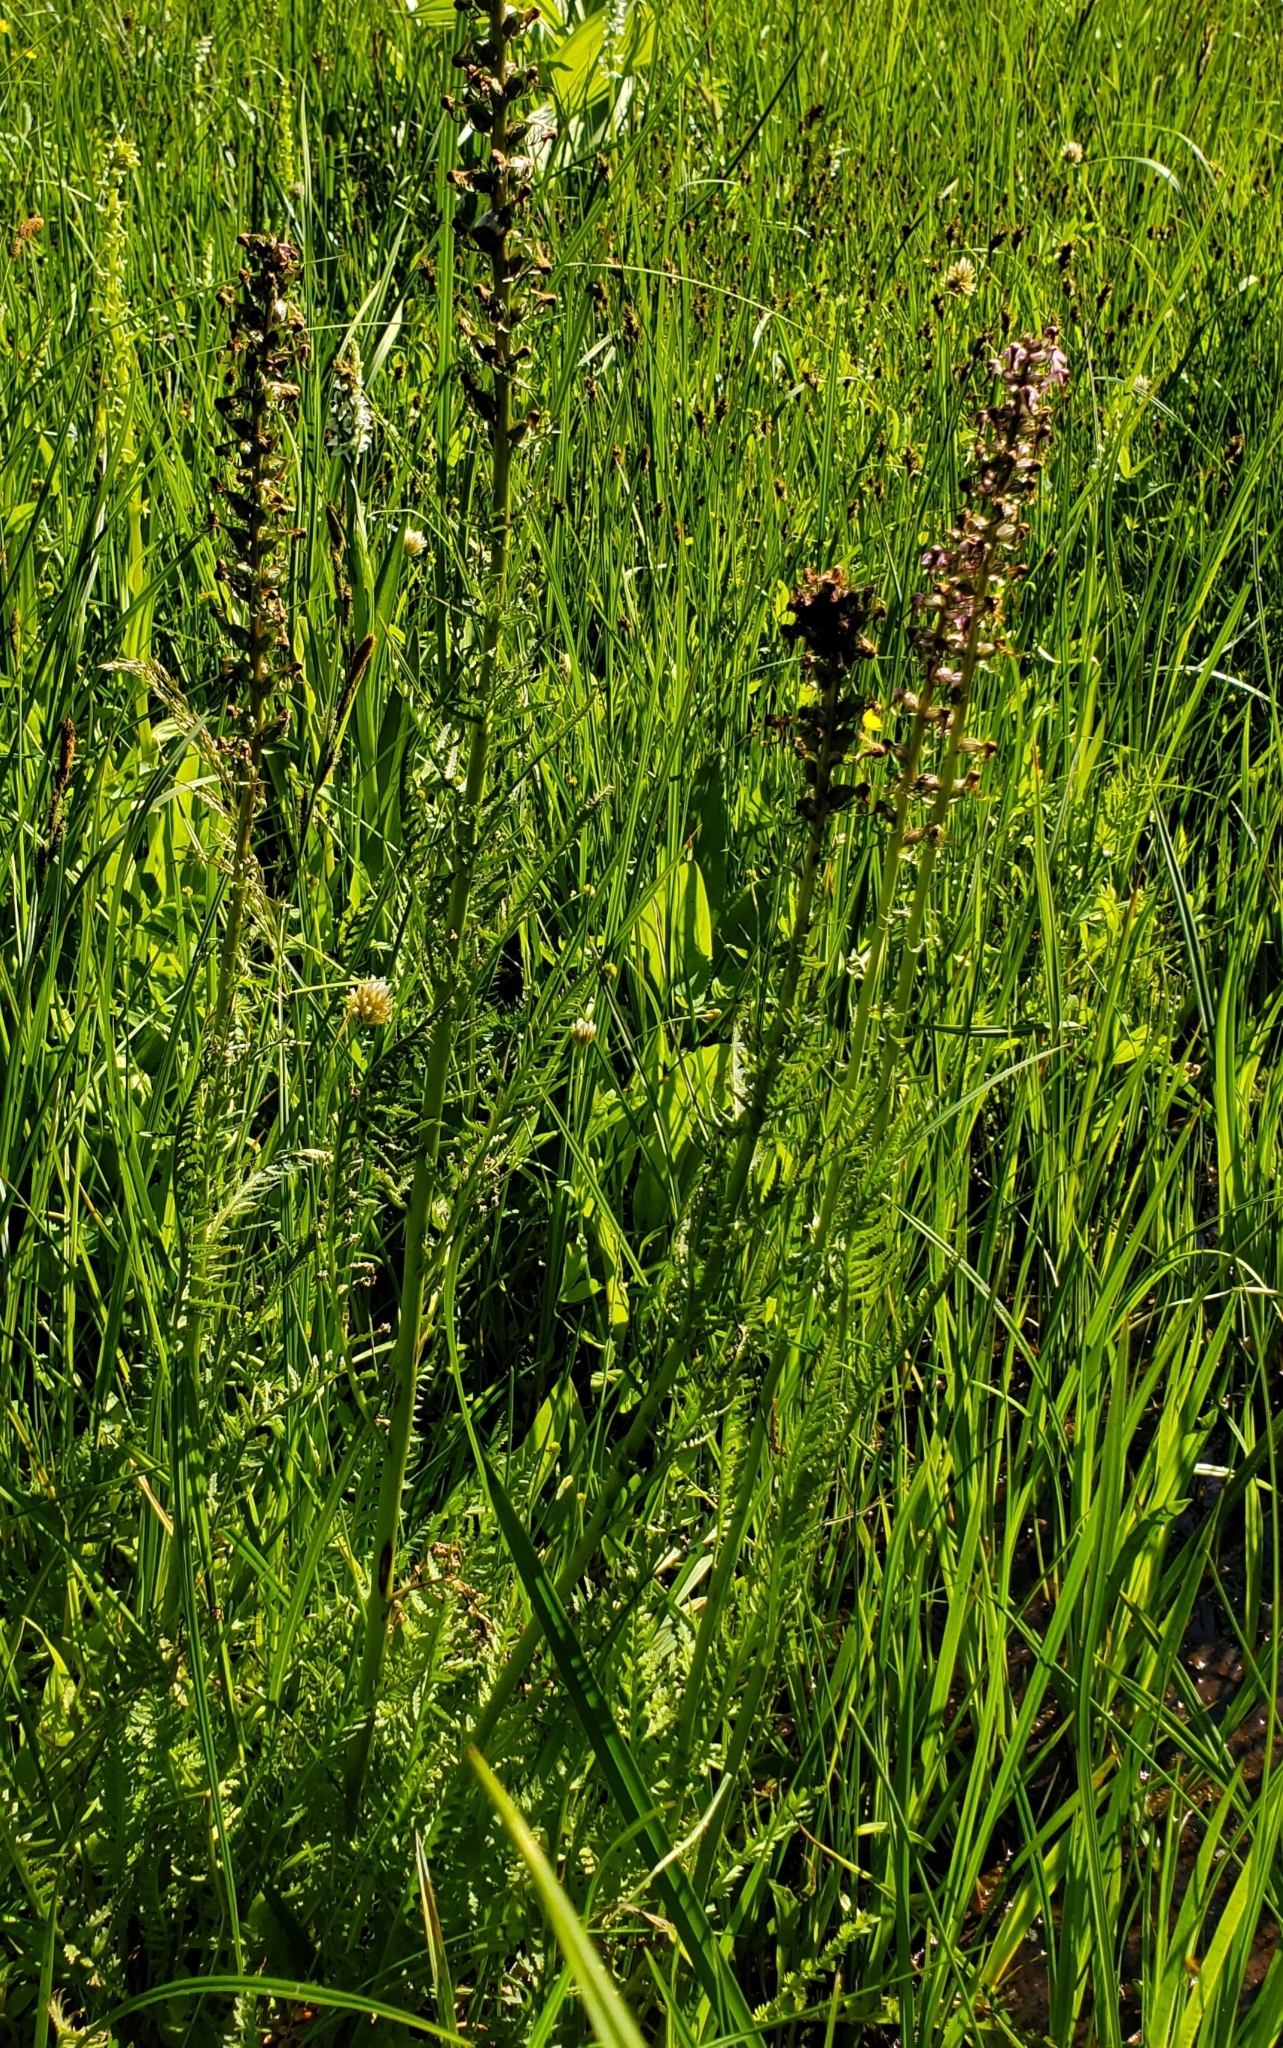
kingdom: Plantae
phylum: Tracheophyta
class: Magnoliopsida
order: Lamiales
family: Orobanchaceae
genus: Pedicularis
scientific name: Pedicularis groenlandica
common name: Elephant's-head
